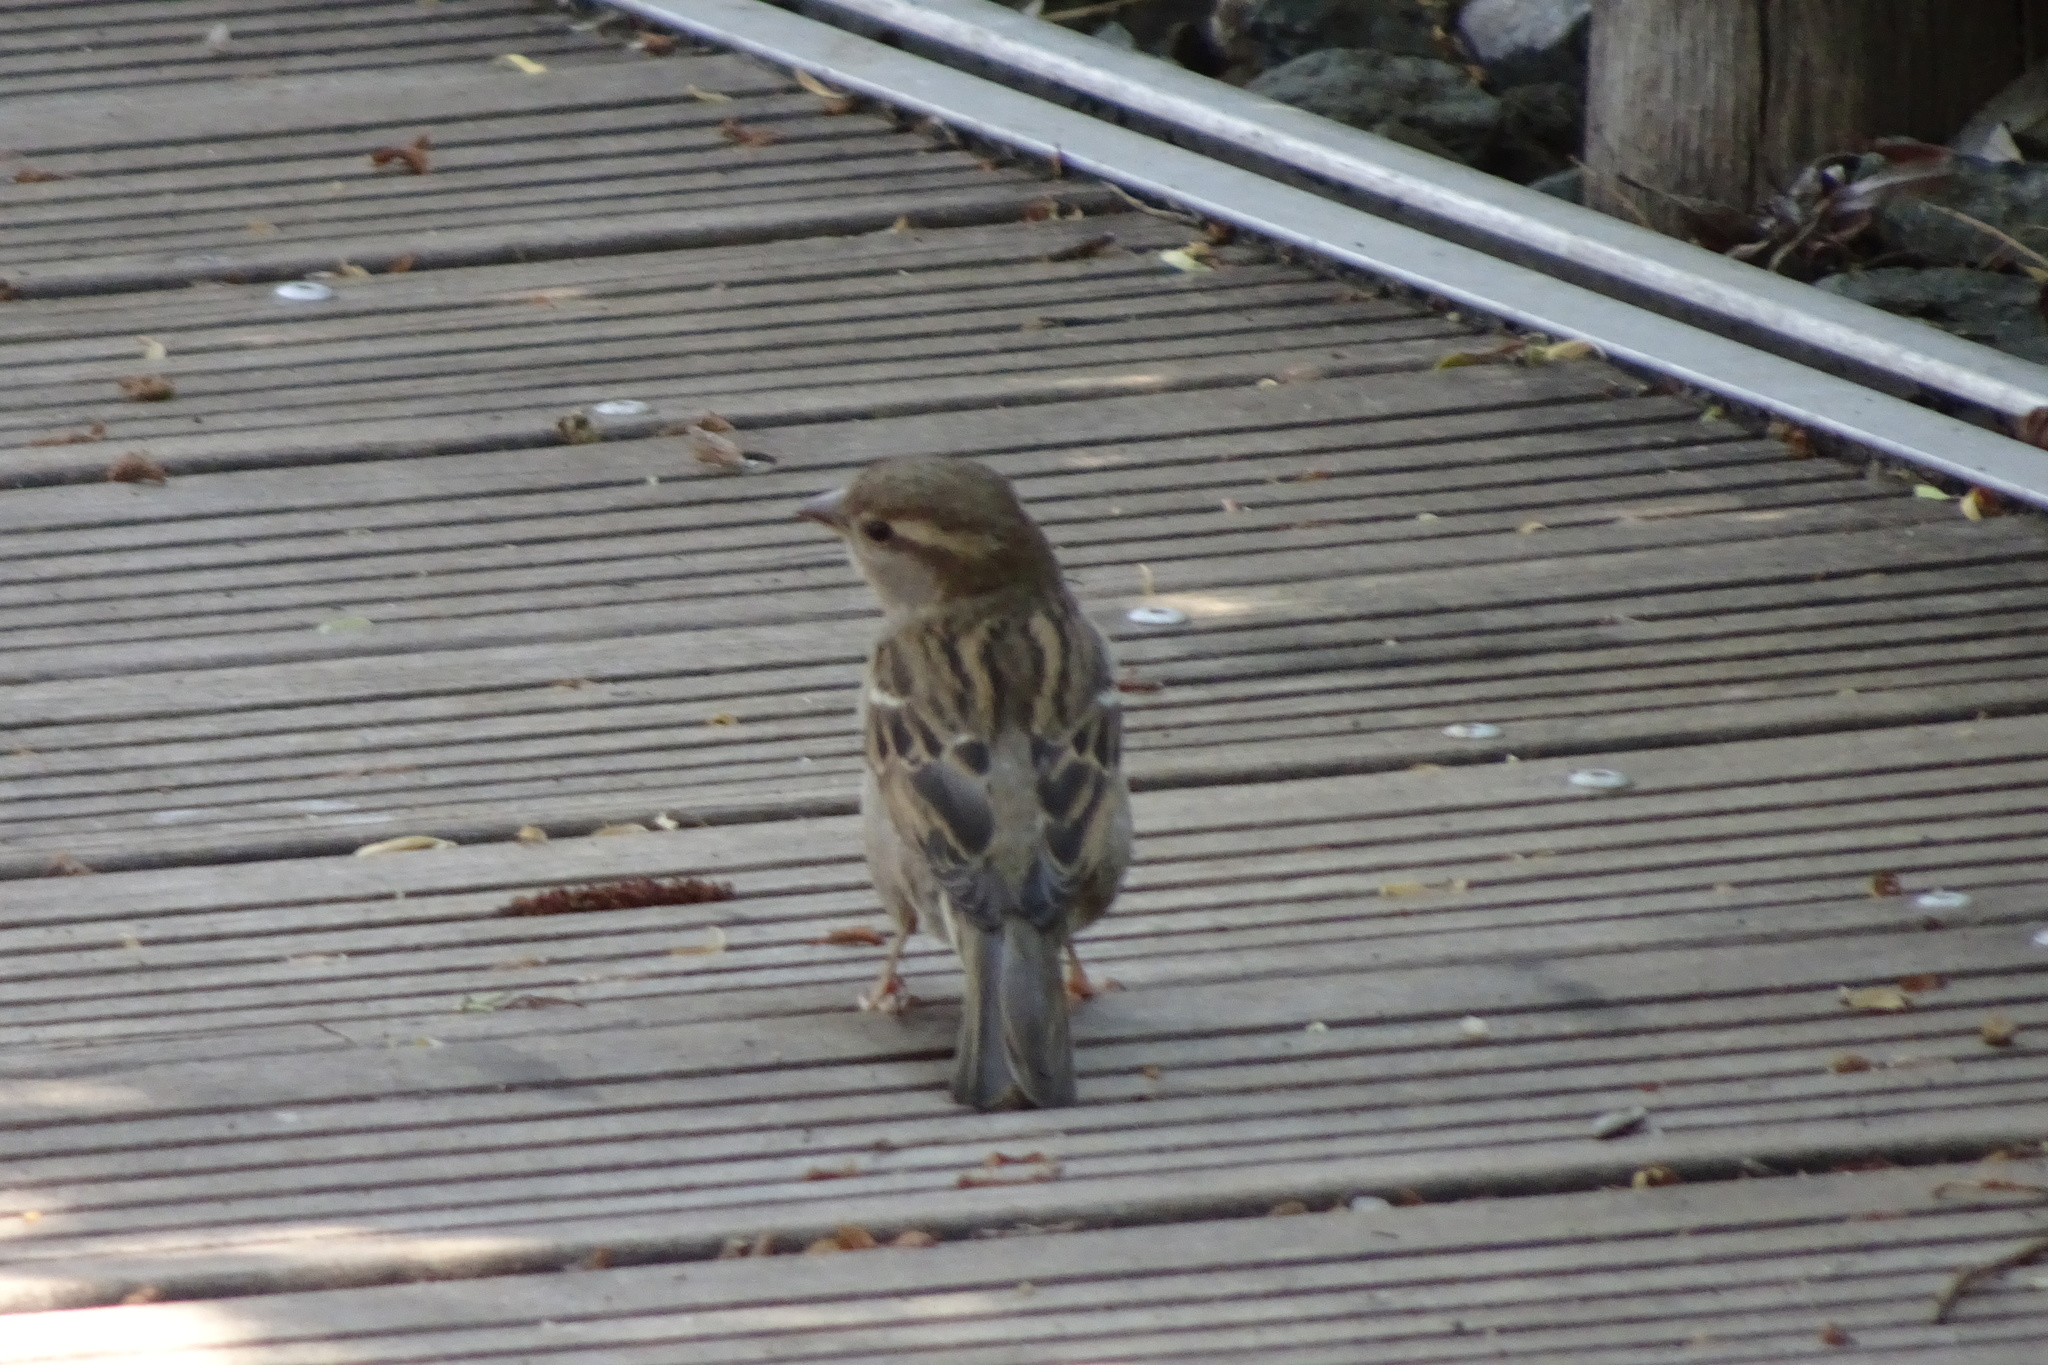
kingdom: Animalia
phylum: Chordata
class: Aves
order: Passeriformes
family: Passeridae
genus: Passer
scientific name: Passer domesticus
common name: House sparrow
